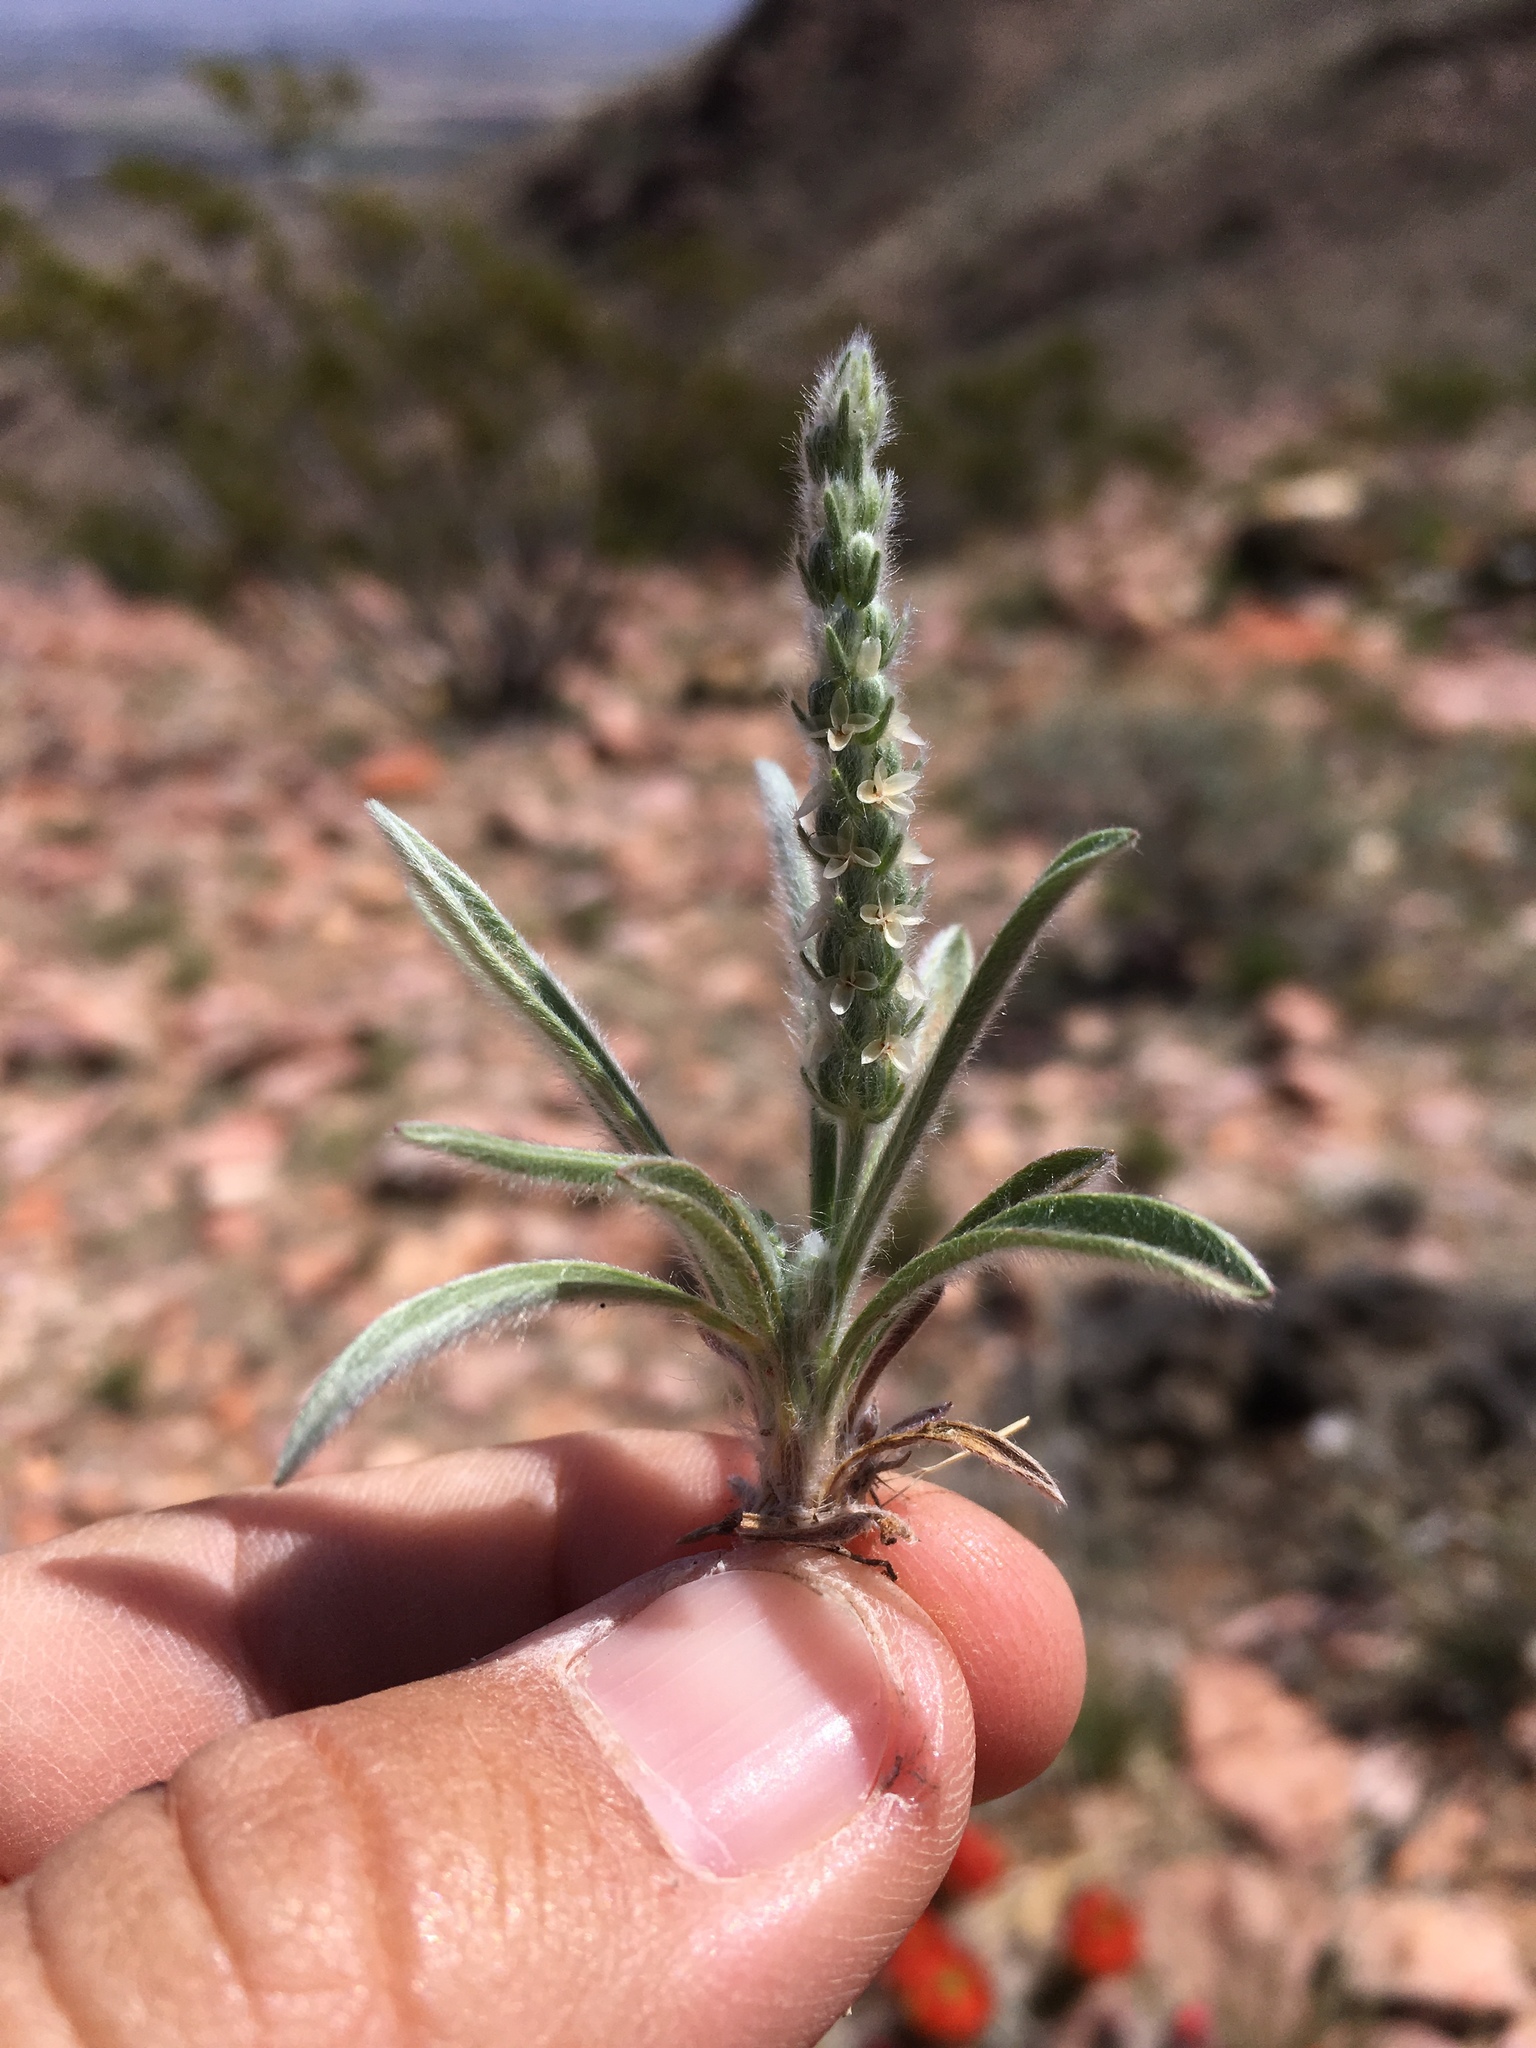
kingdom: Plantae
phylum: Tracheophyta
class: Magnoliopsida
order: Lamiales
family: Plantaginaceae
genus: Plantago
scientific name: Plantago patagonica
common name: Patagonia indian-wheat
